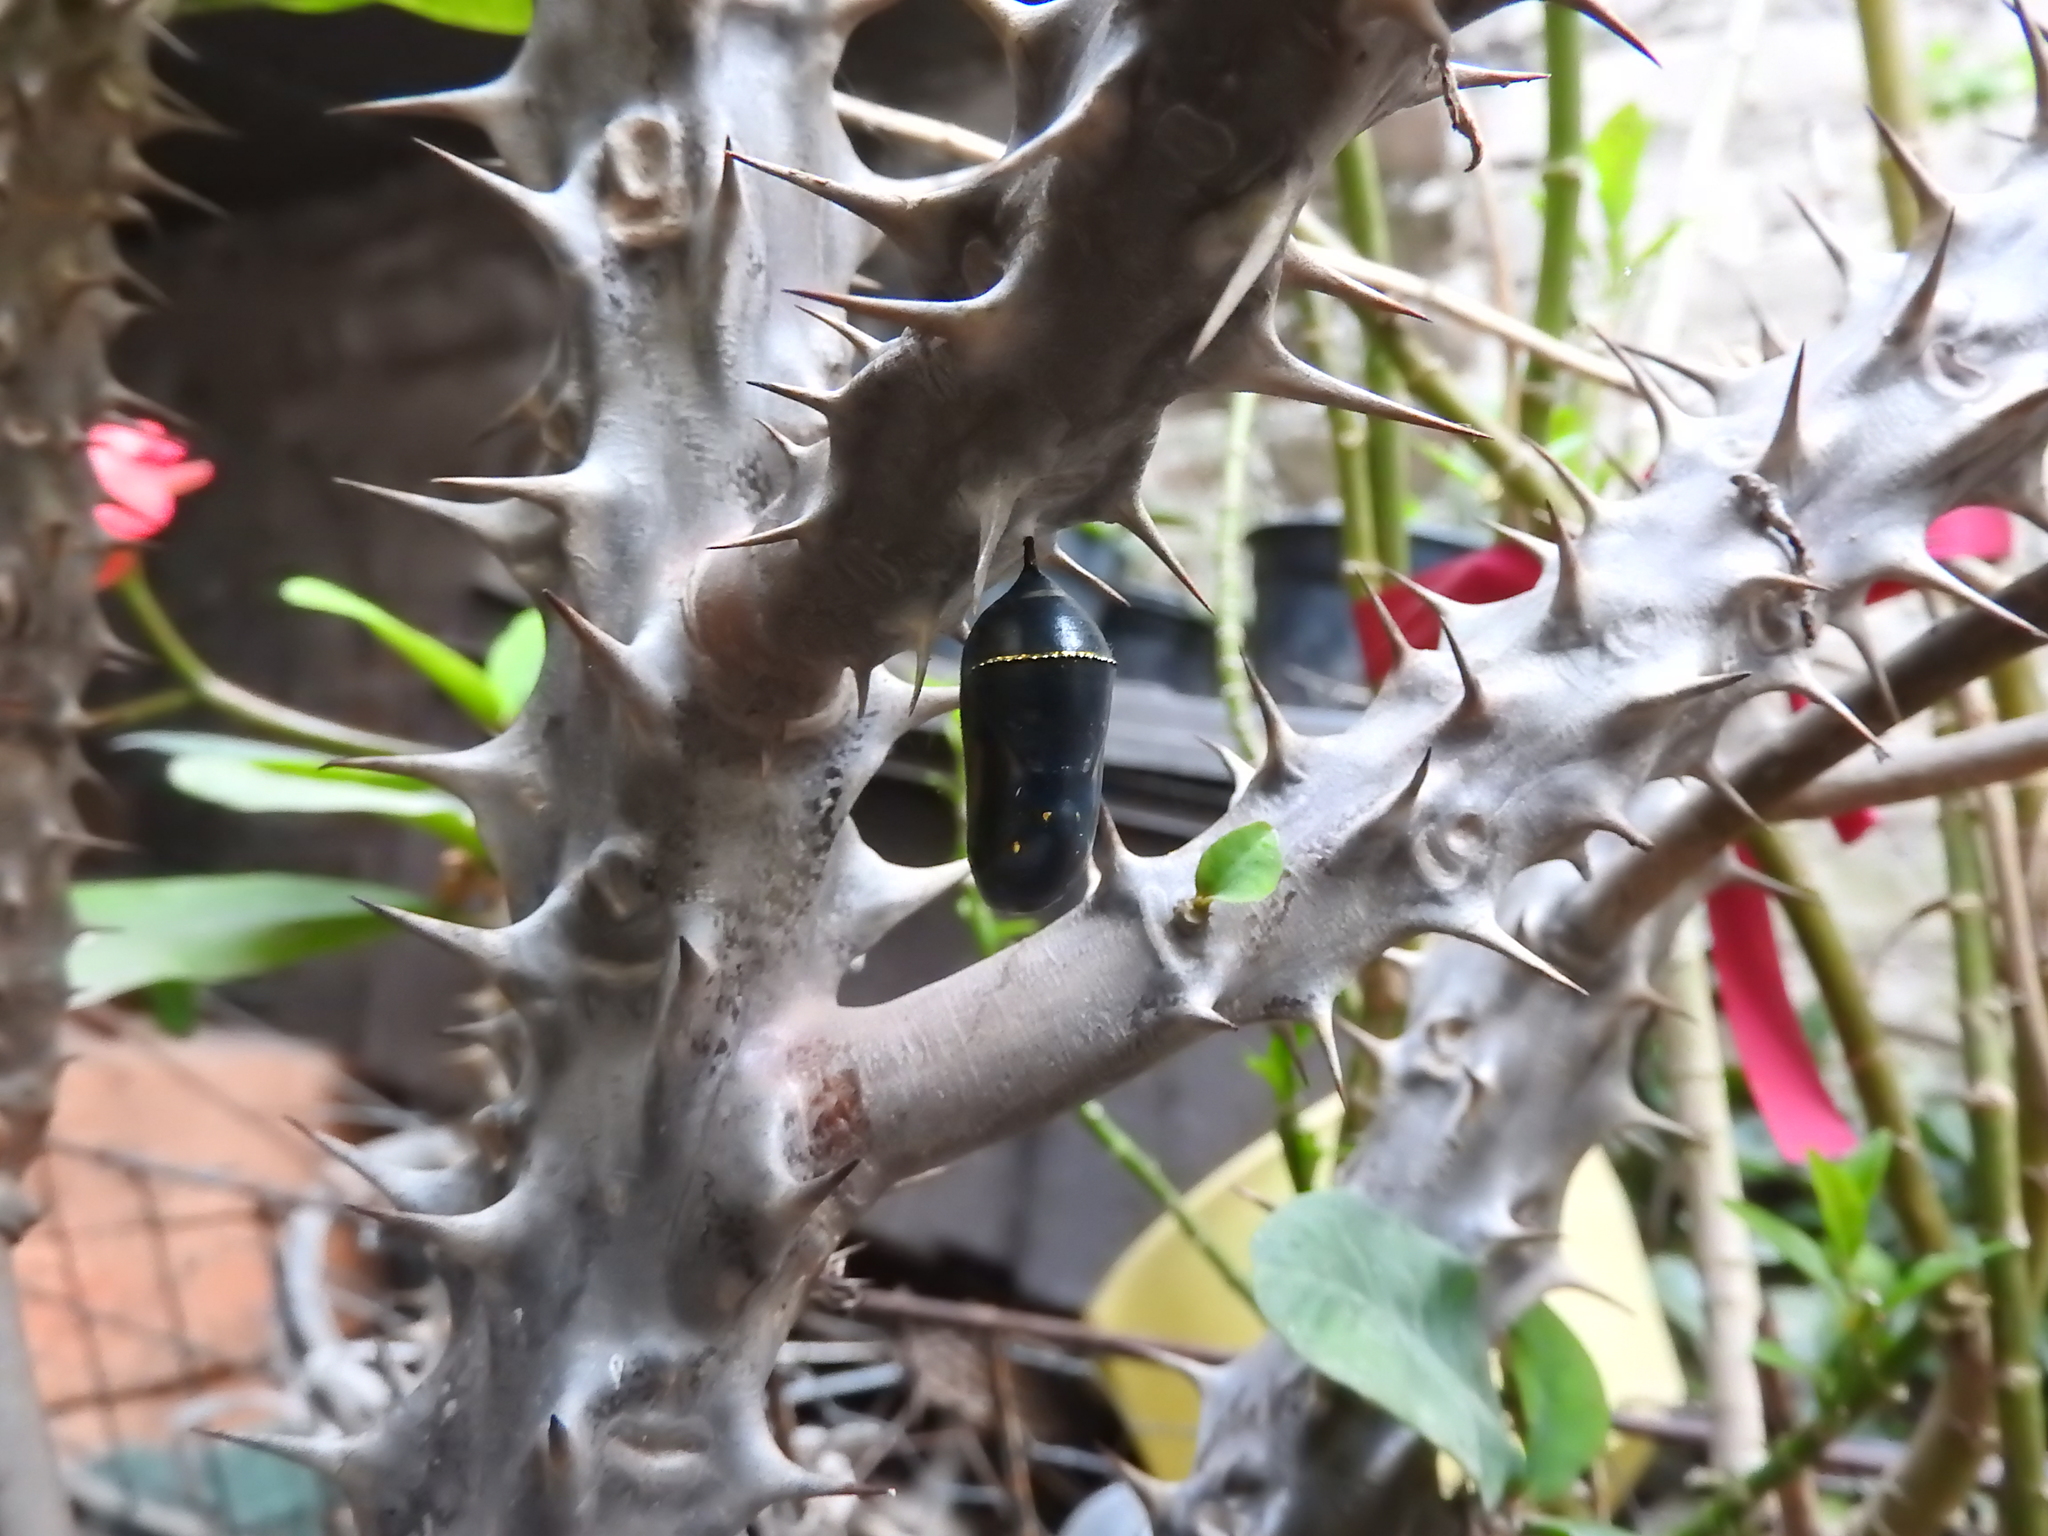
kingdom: Animalia
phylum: Arthropoda
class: Insecta
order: Lepidoptera
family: Nymphalidae
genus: Danaus
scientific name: Danaus plexippus
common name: Monarch
